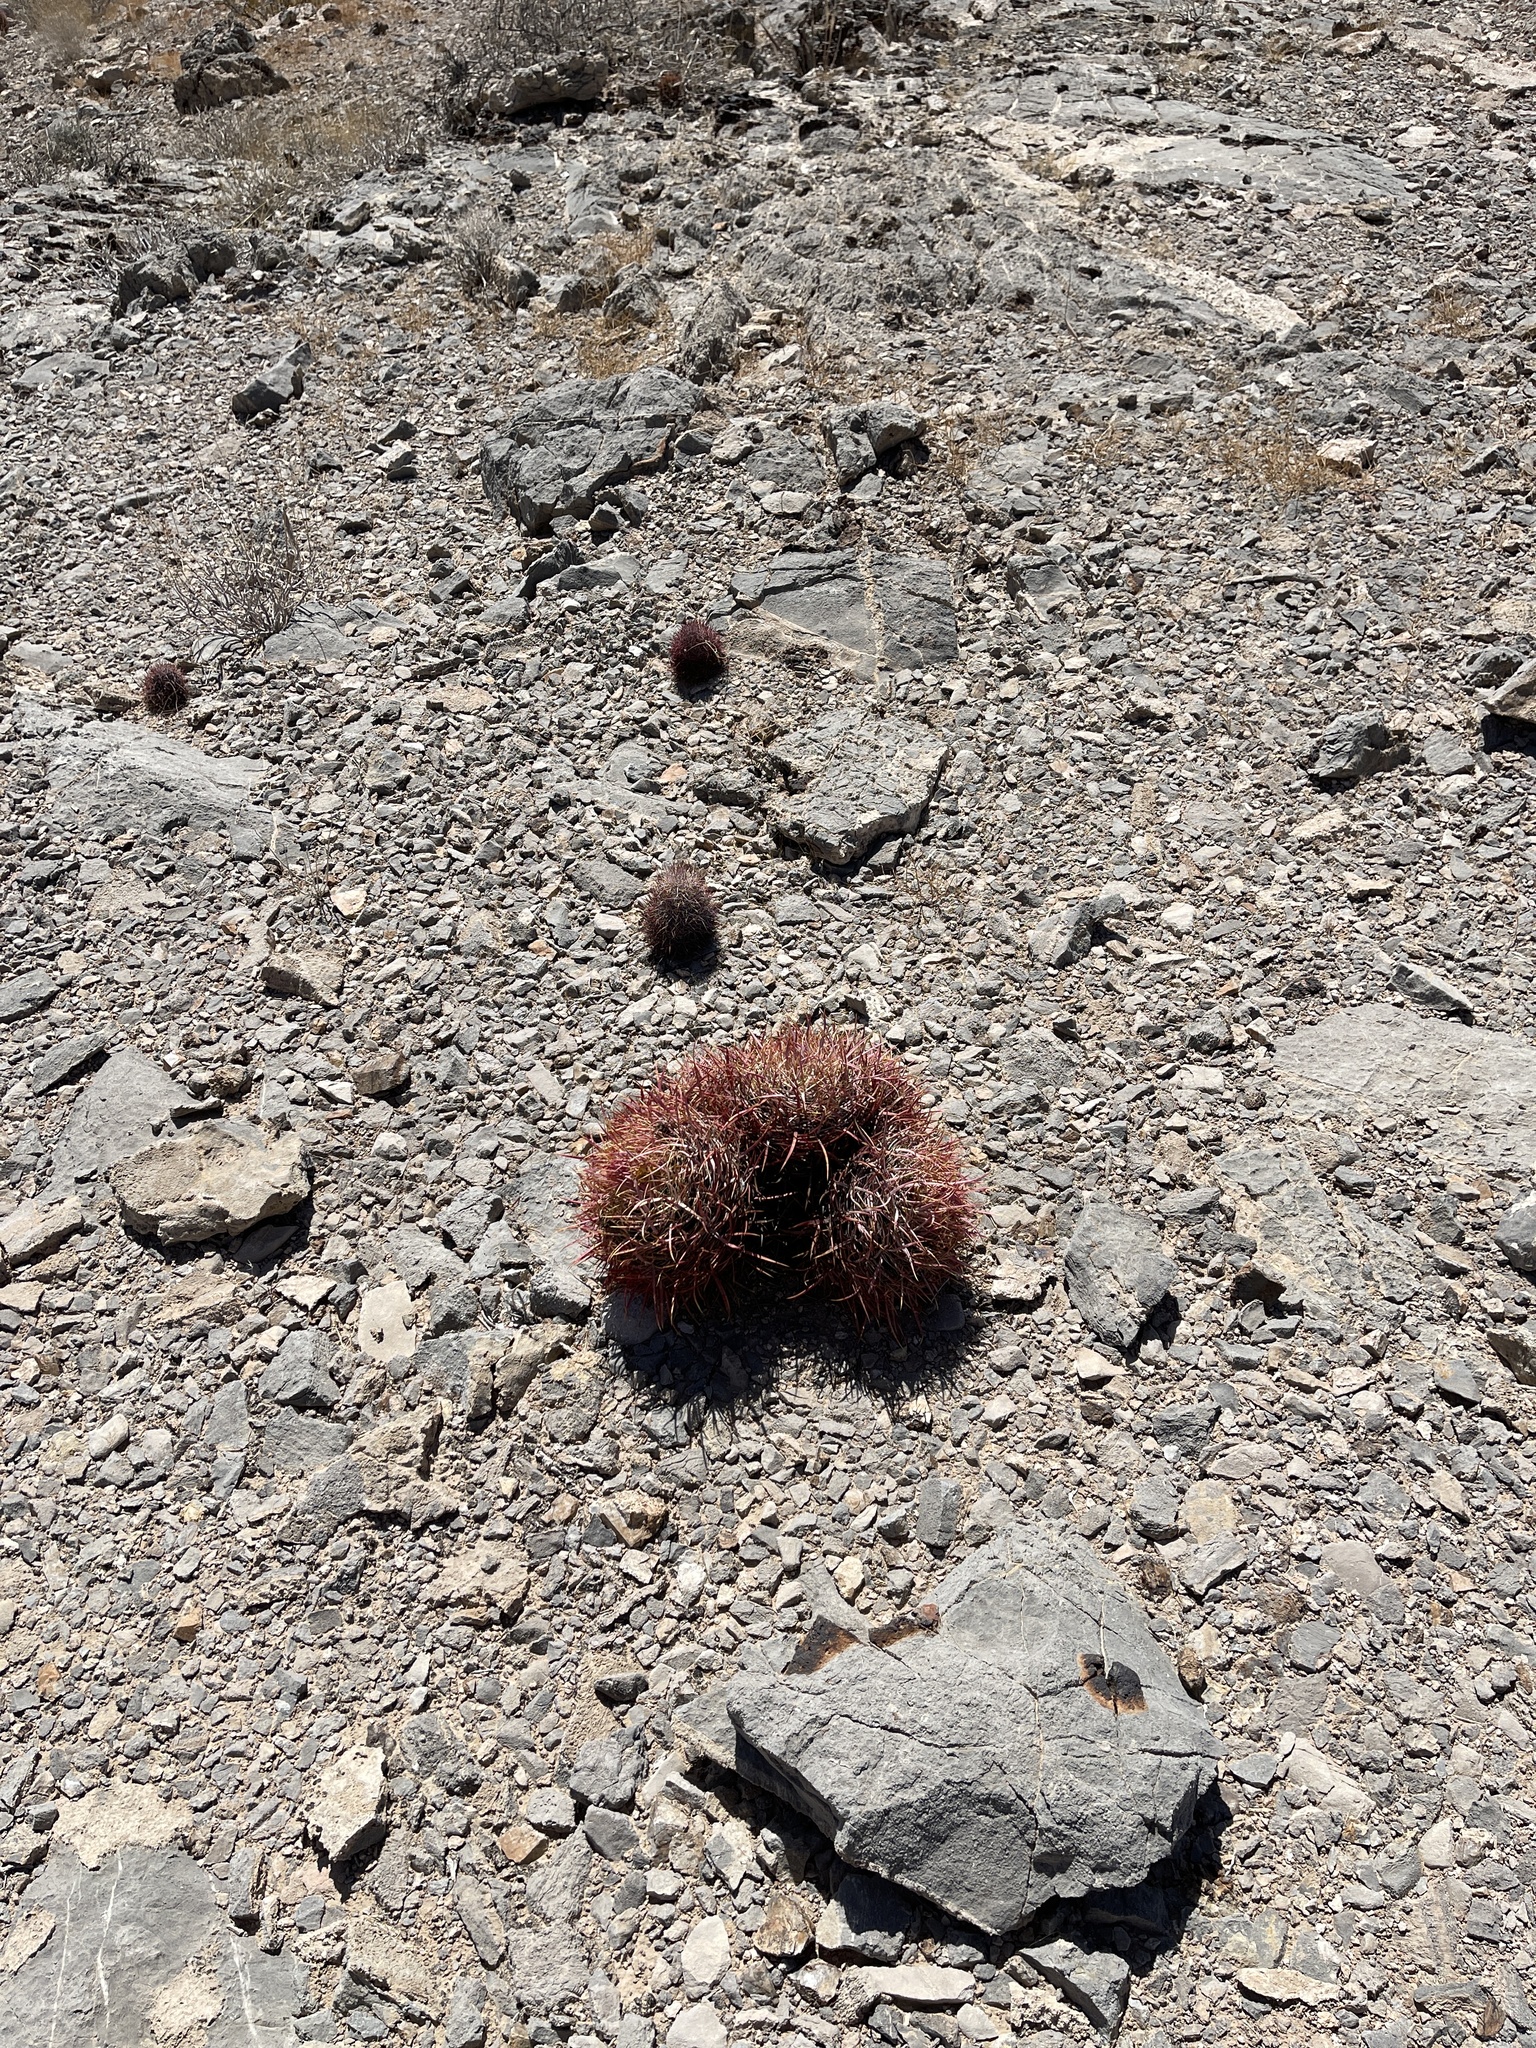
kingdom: Plantae
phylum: Tracheophyta
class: Magnoliopsida
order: Caryophyllales
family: Cactaceae
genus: Ferocactus
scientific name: Ferocactus cylindraceus
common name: California barrel cactus
